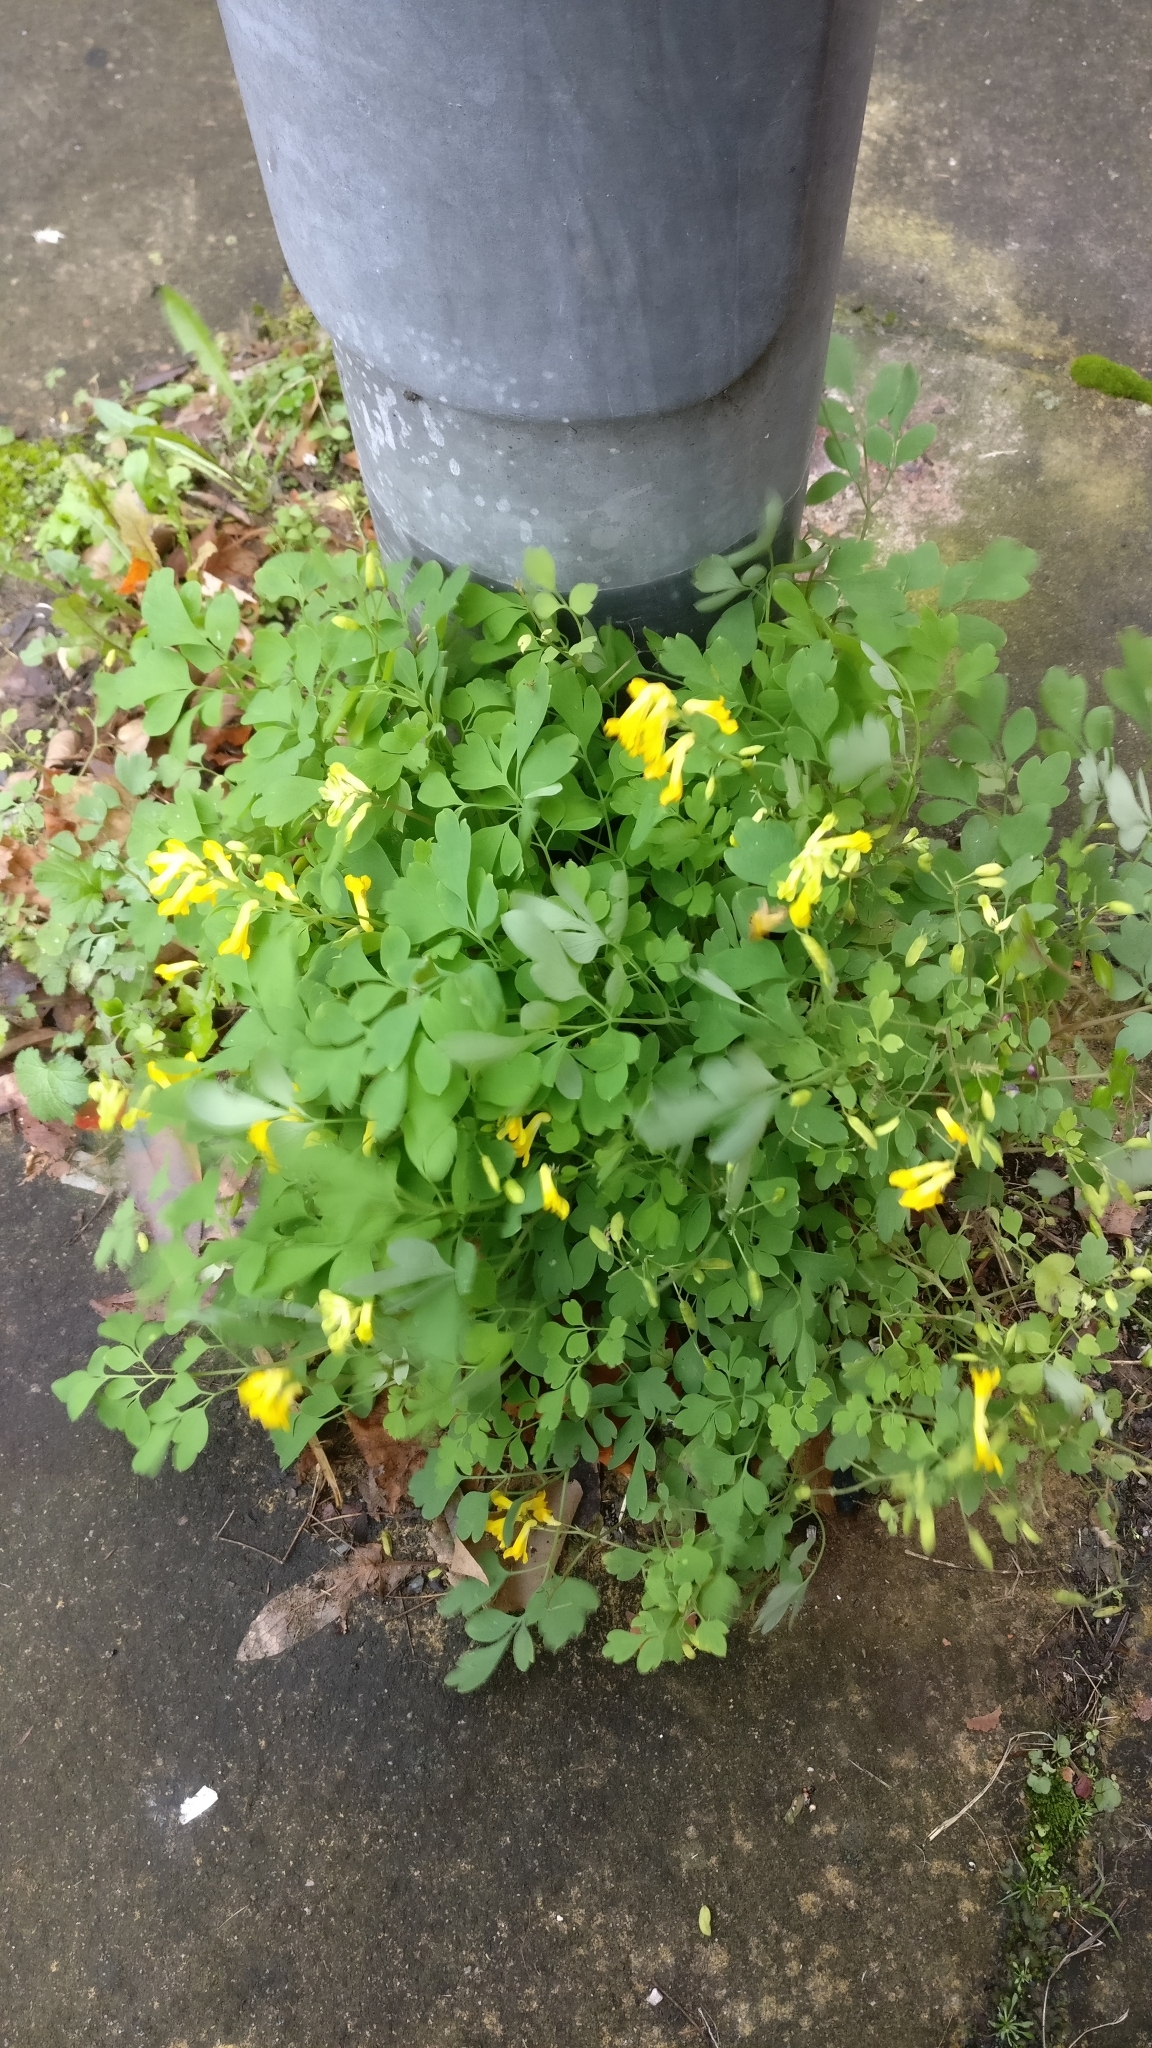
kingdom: Plantae
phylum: Tracheophyta
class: Magnoliopsida
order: Ranunculales
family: Papaveraceae
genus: Pseudofumaria
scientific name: Pseudofumaria lutea
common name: Yellow corydalis
